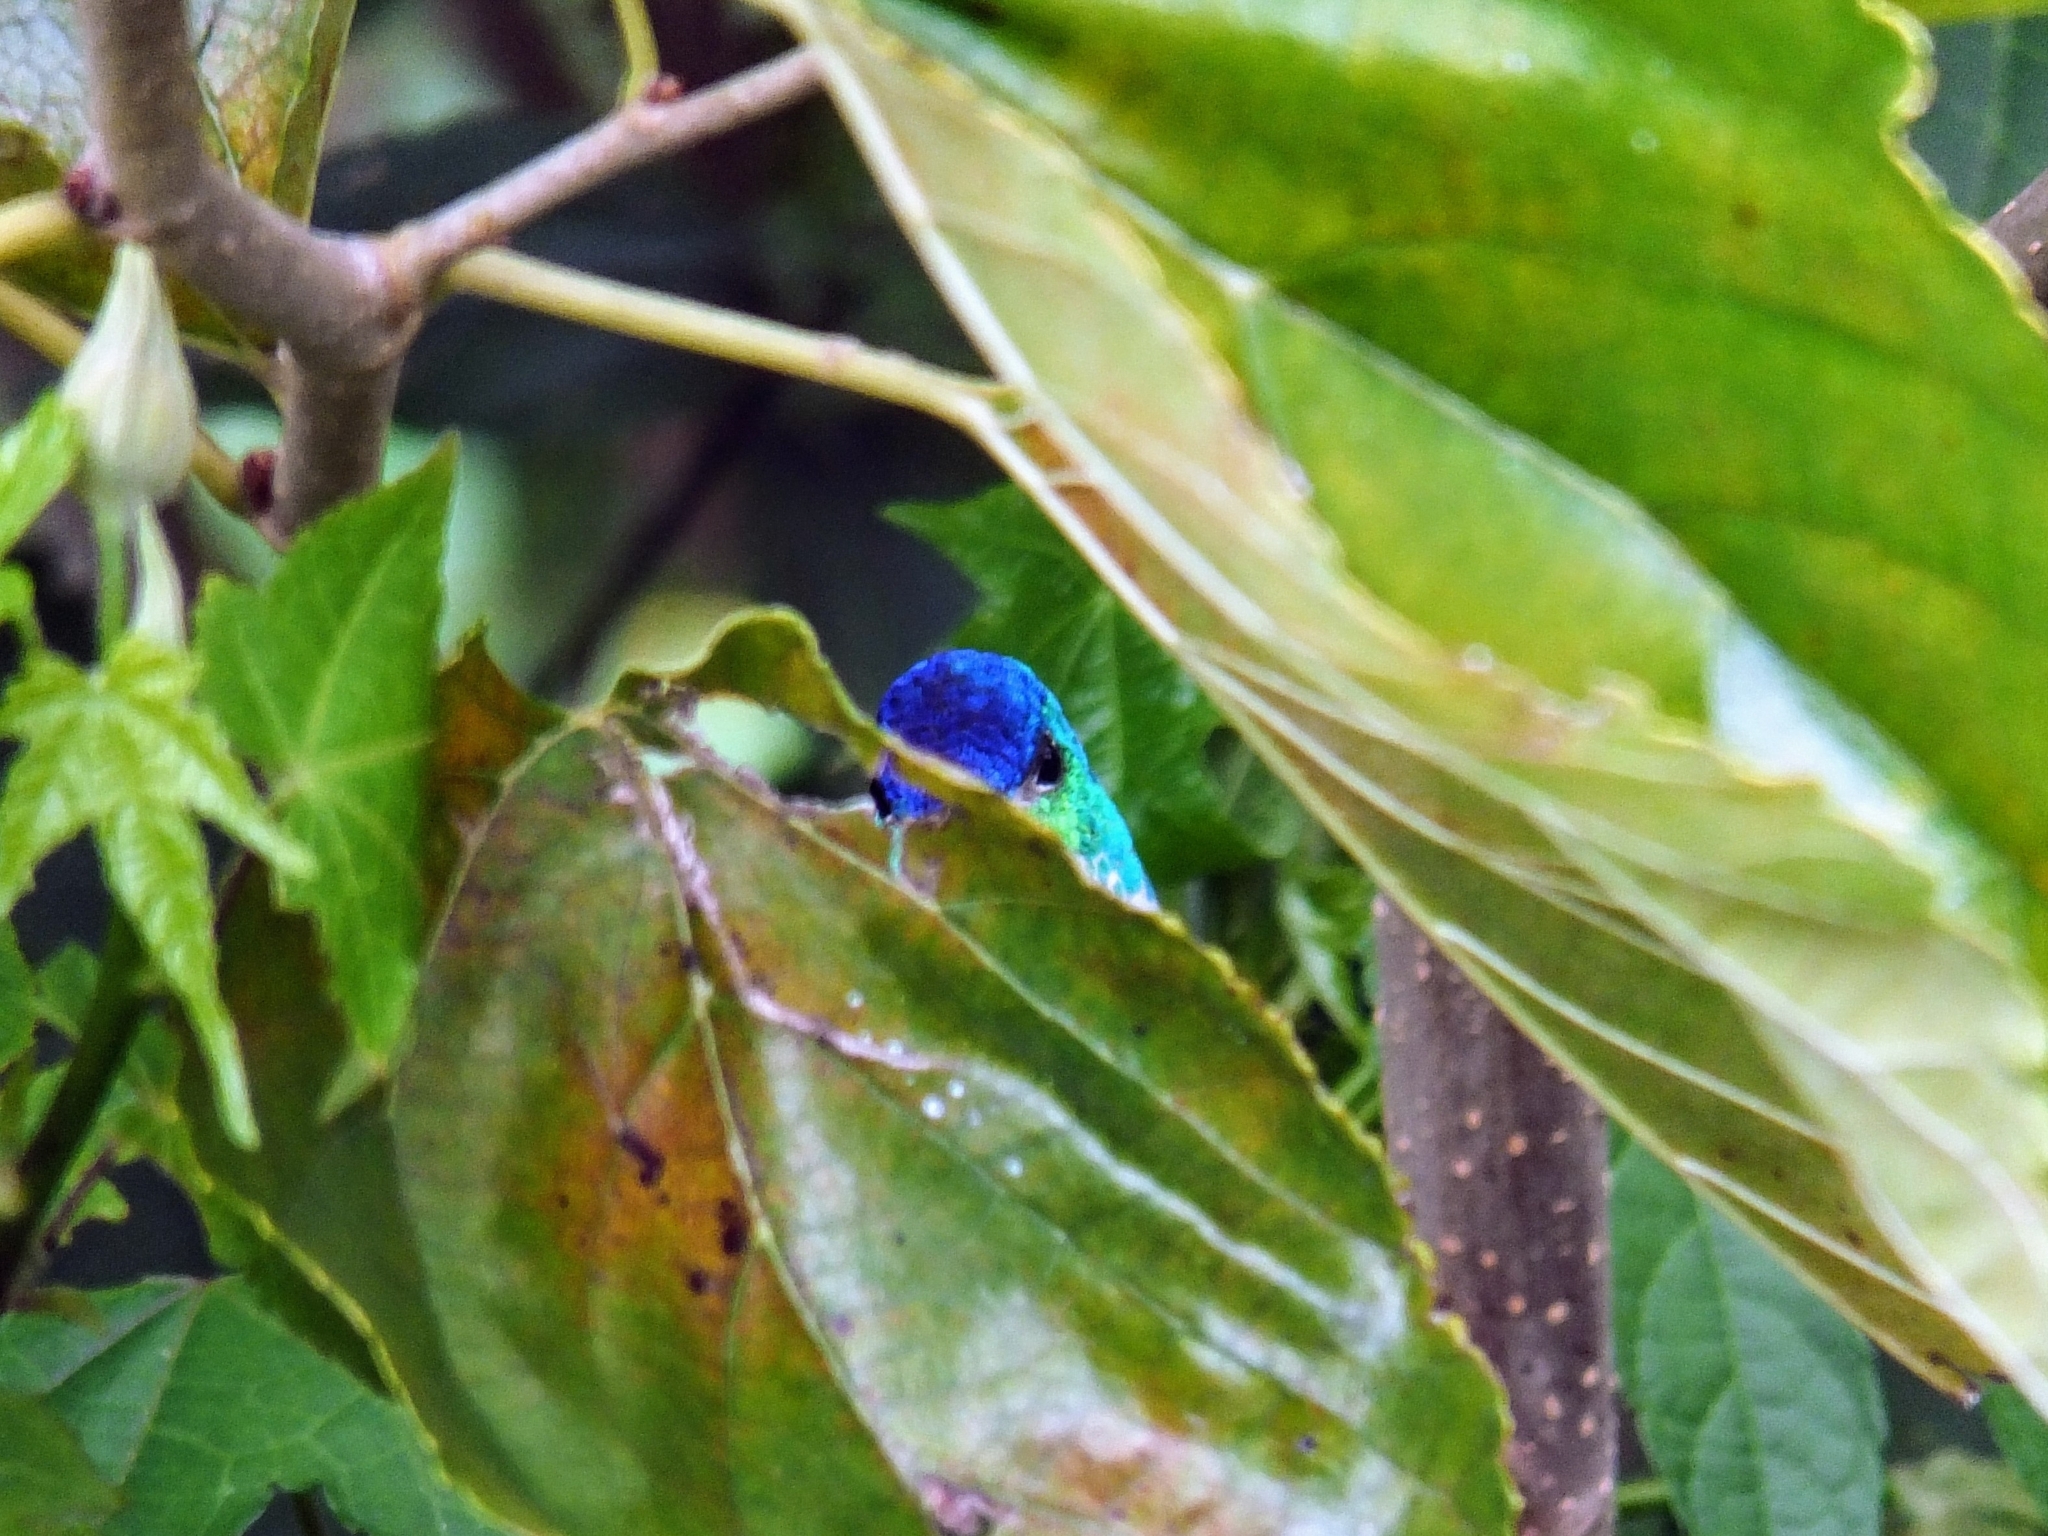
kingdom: Animalia
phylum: Chordata
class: Aves
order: Apodiformes
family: Trochilidae
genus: Uranomitra
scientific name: Uranomitra franciae
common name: Andean emerald
